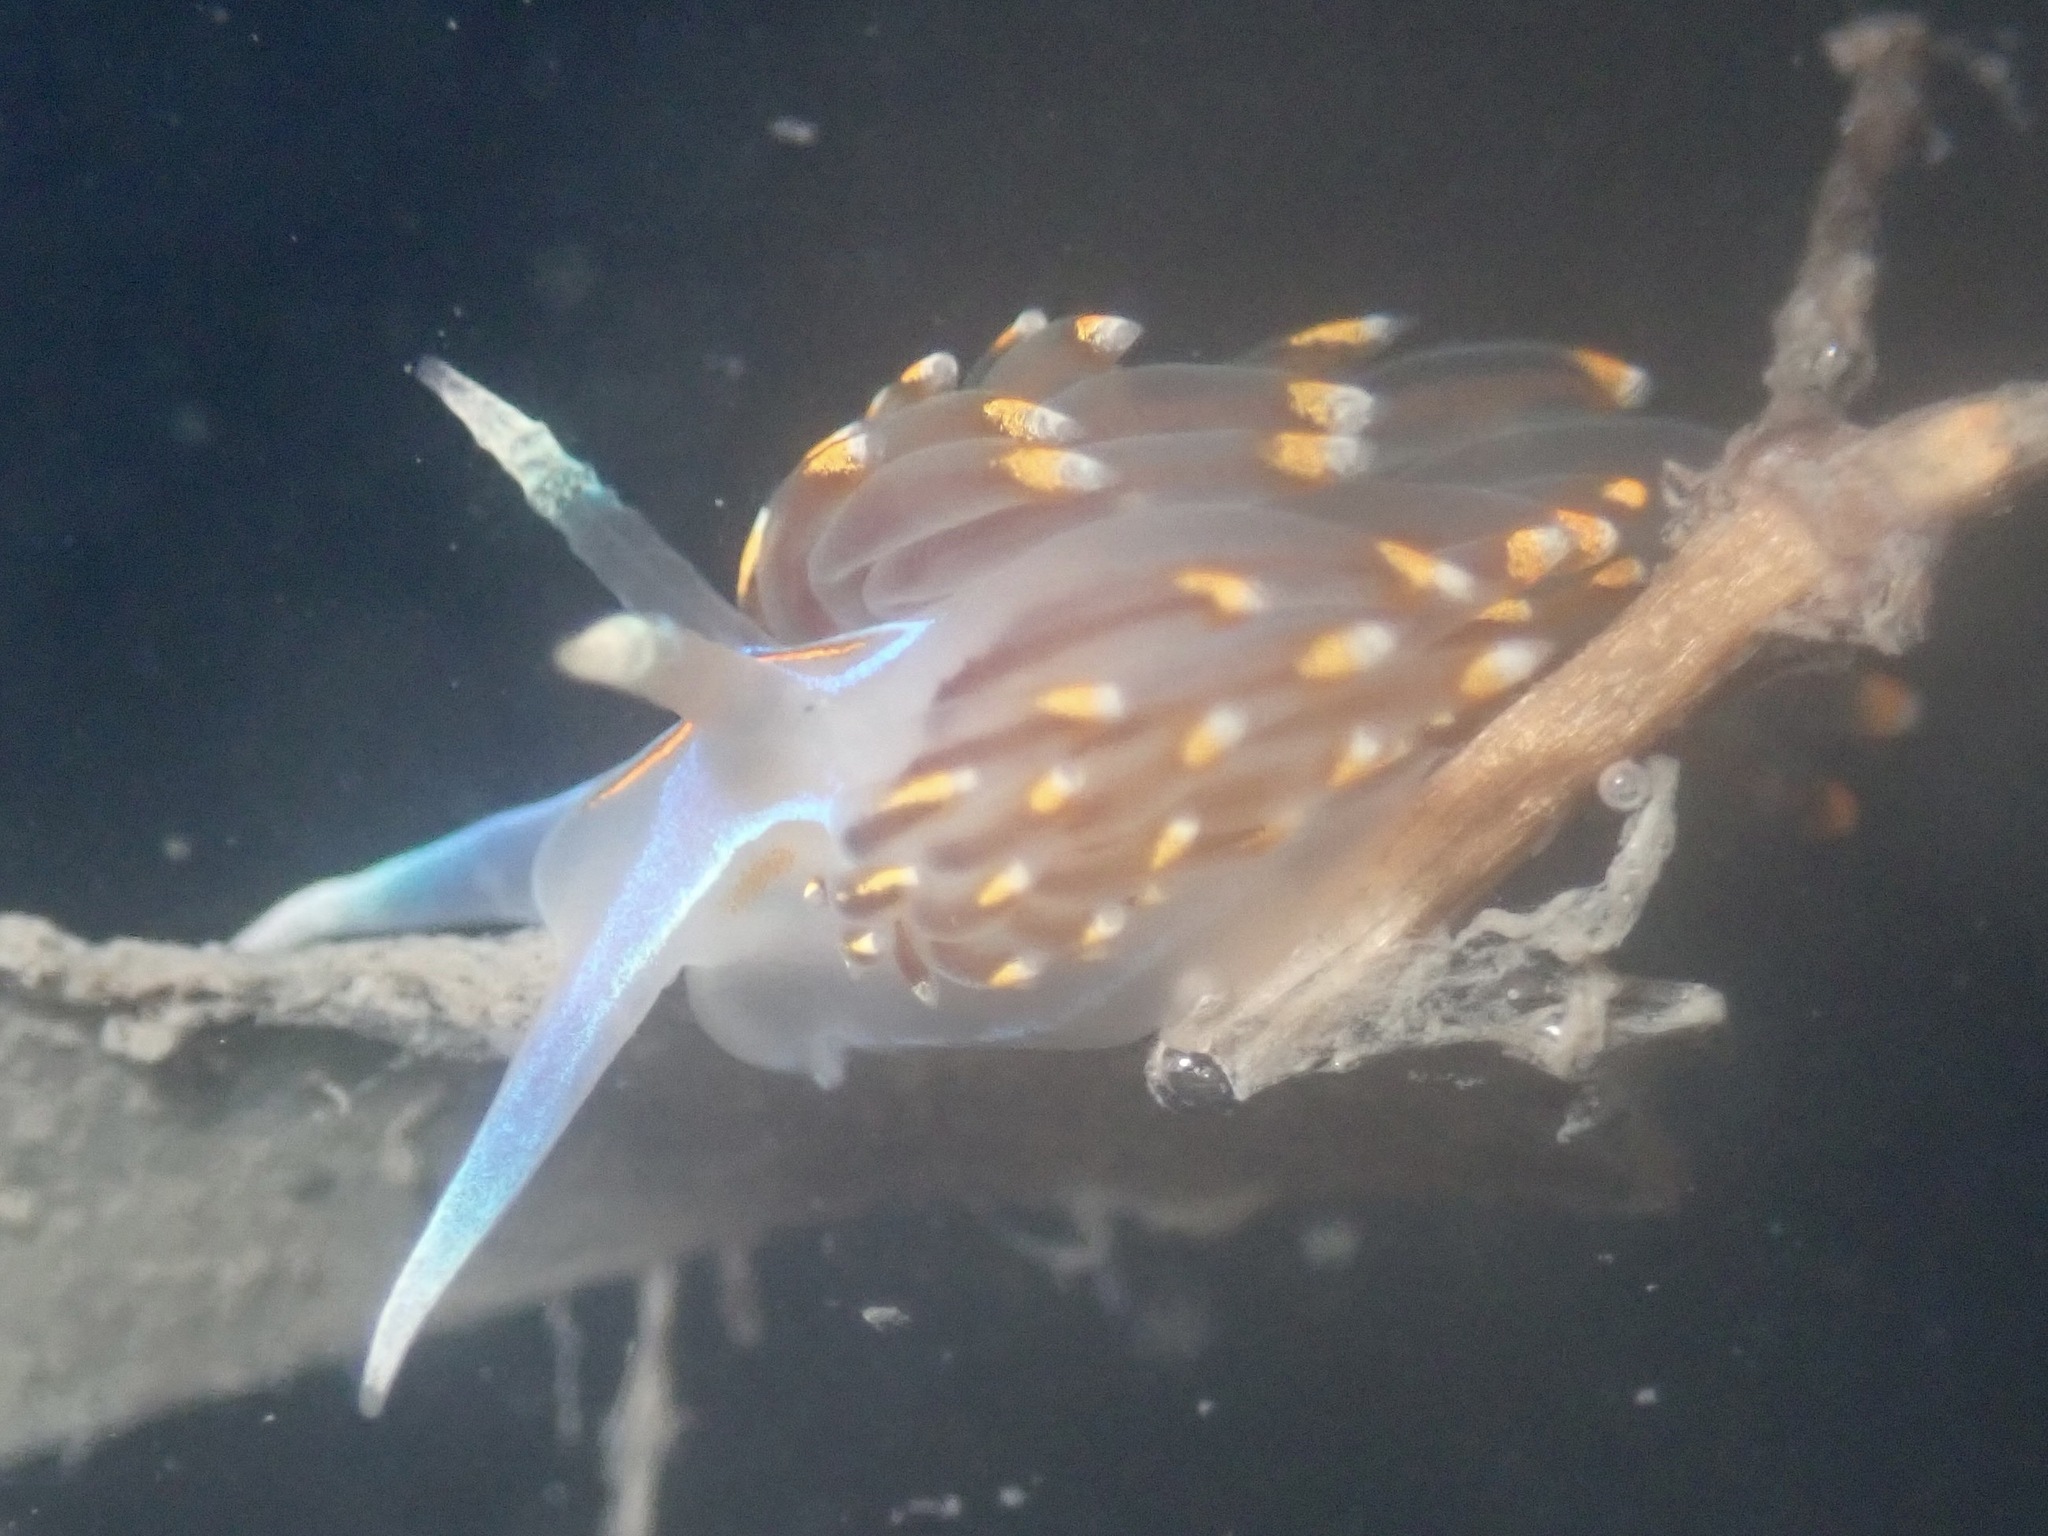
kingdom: Animalia
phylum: Mollusca
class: Gastropoda
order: Nudibranchia
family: Myrrhinidae
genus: Hermissenda
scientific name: Hermissenda opalescens
